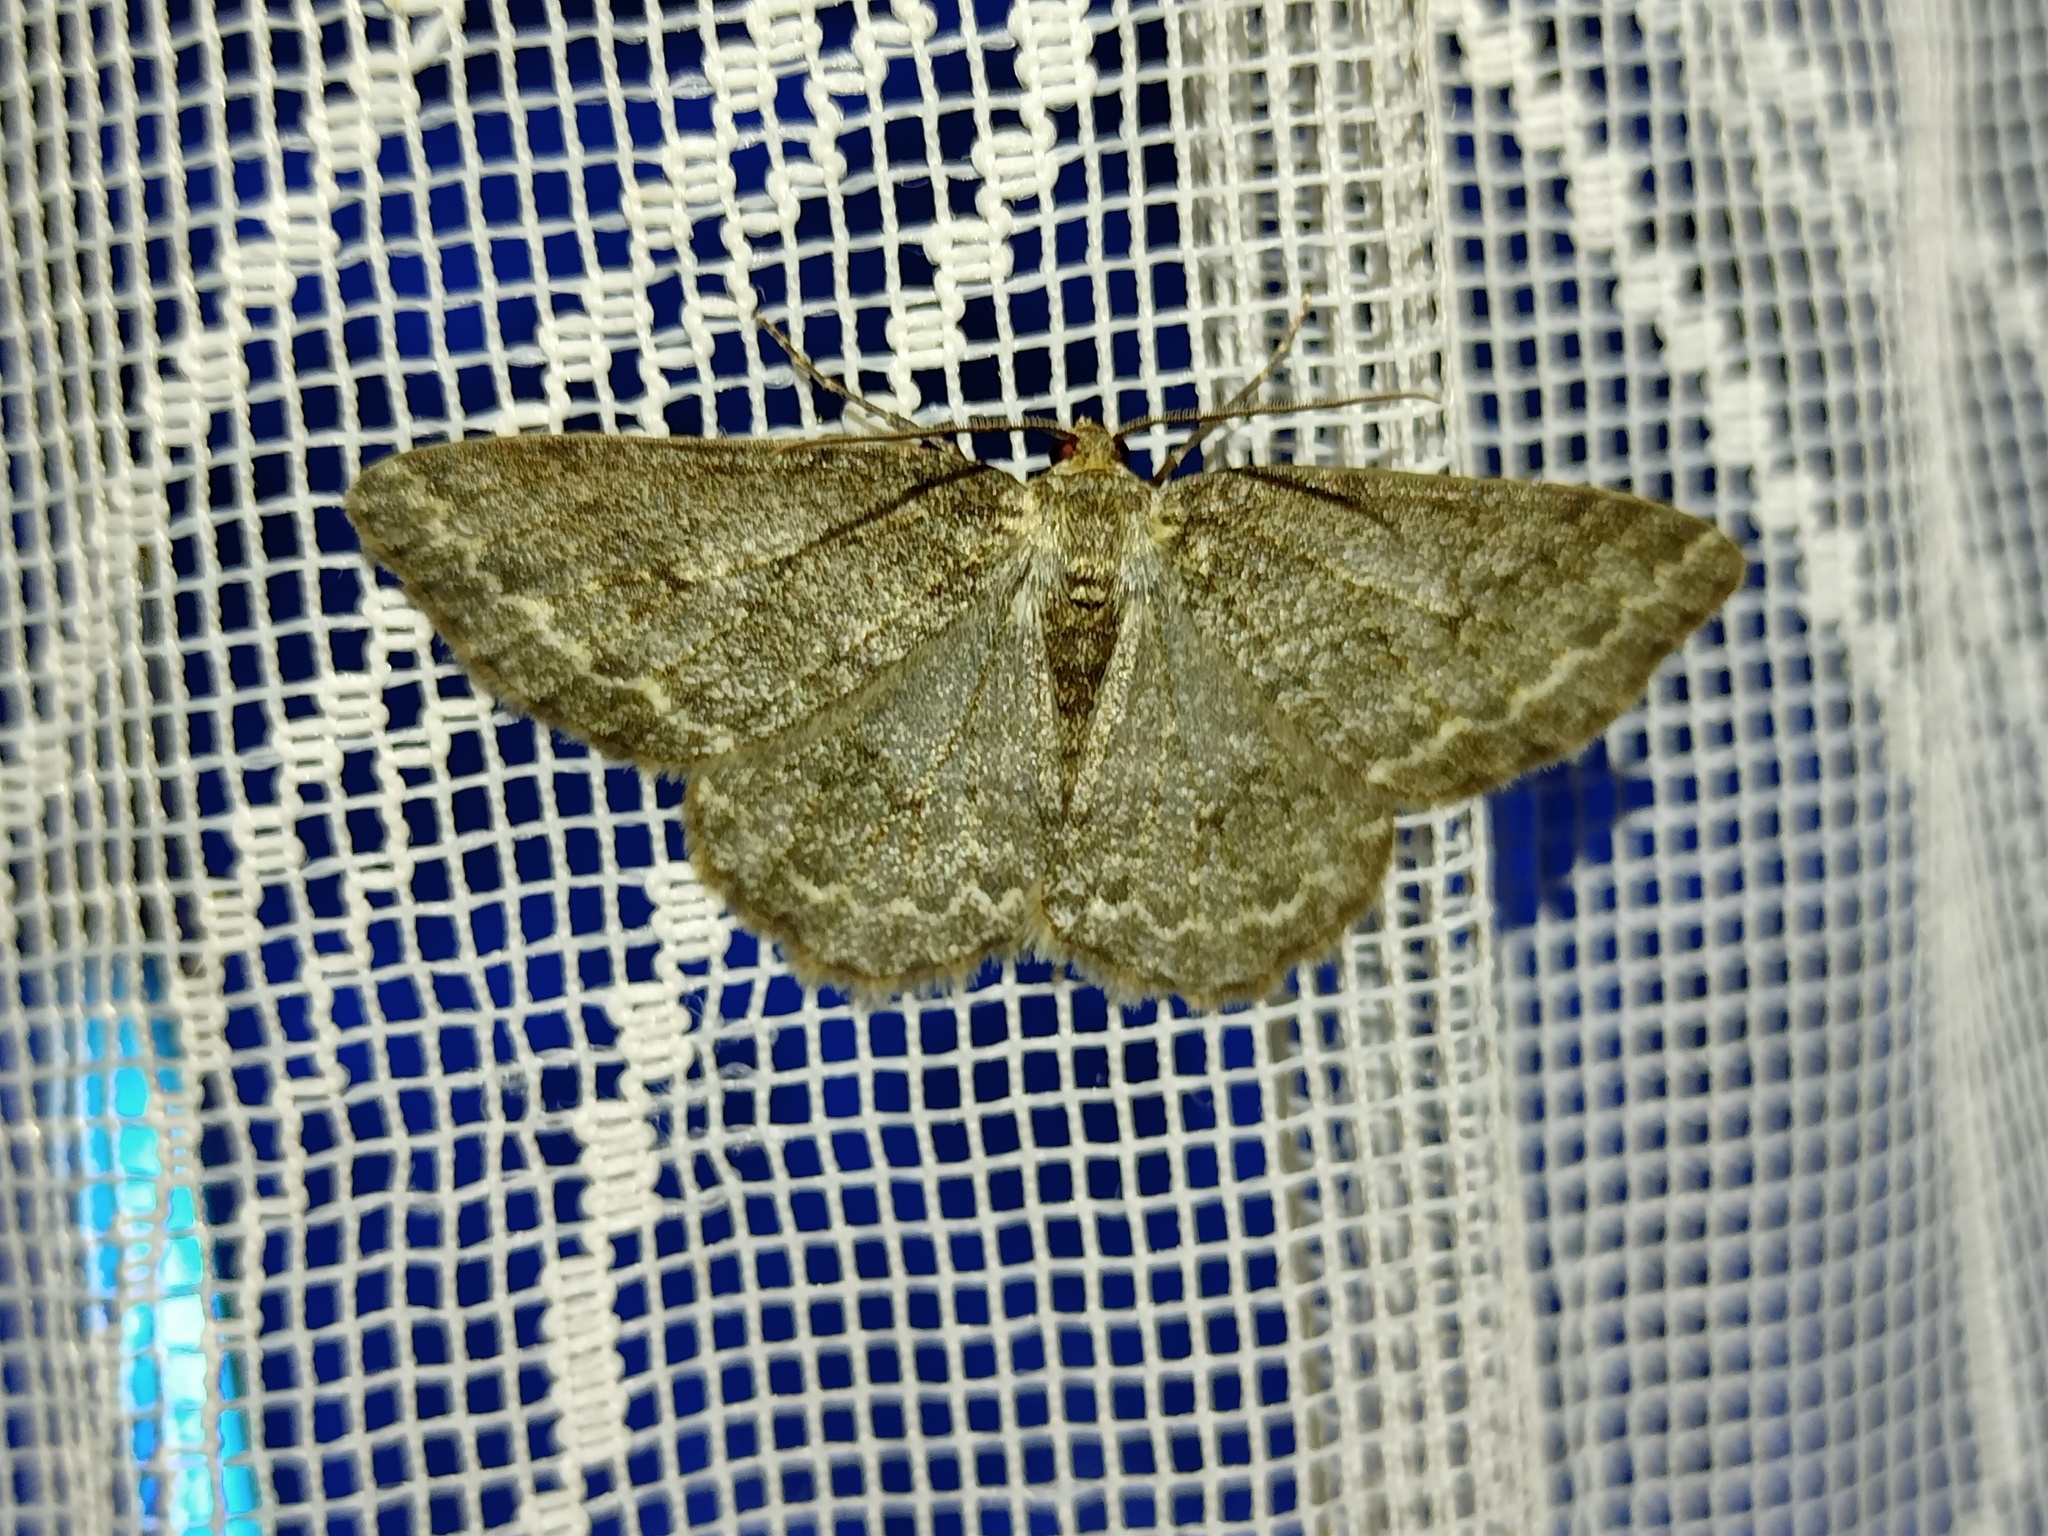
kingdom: Animalia
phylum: Arthropoda
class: Insecta
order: Lepidoptera
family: Geometridae
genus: Ectropis
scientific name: Ectropis crepuscularia
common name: Engrailed
